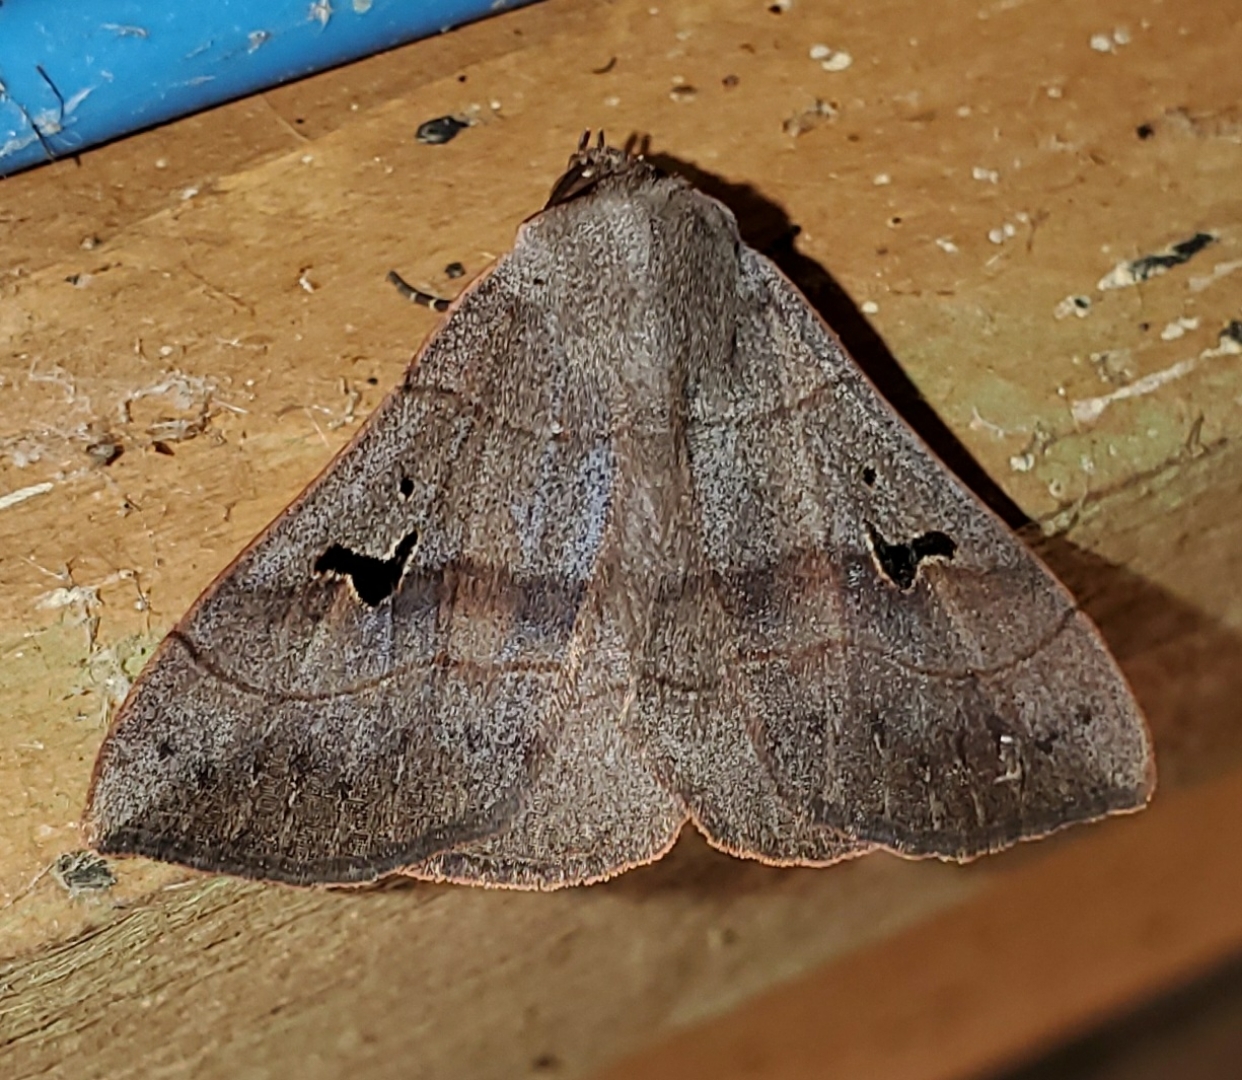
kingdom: Animalia
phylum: Arthropoda
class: Insecta
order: Lepidoptera
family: Erebidae
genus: Panopoda
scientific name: Panopoda carneicosta
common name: Brown panopoda moth
